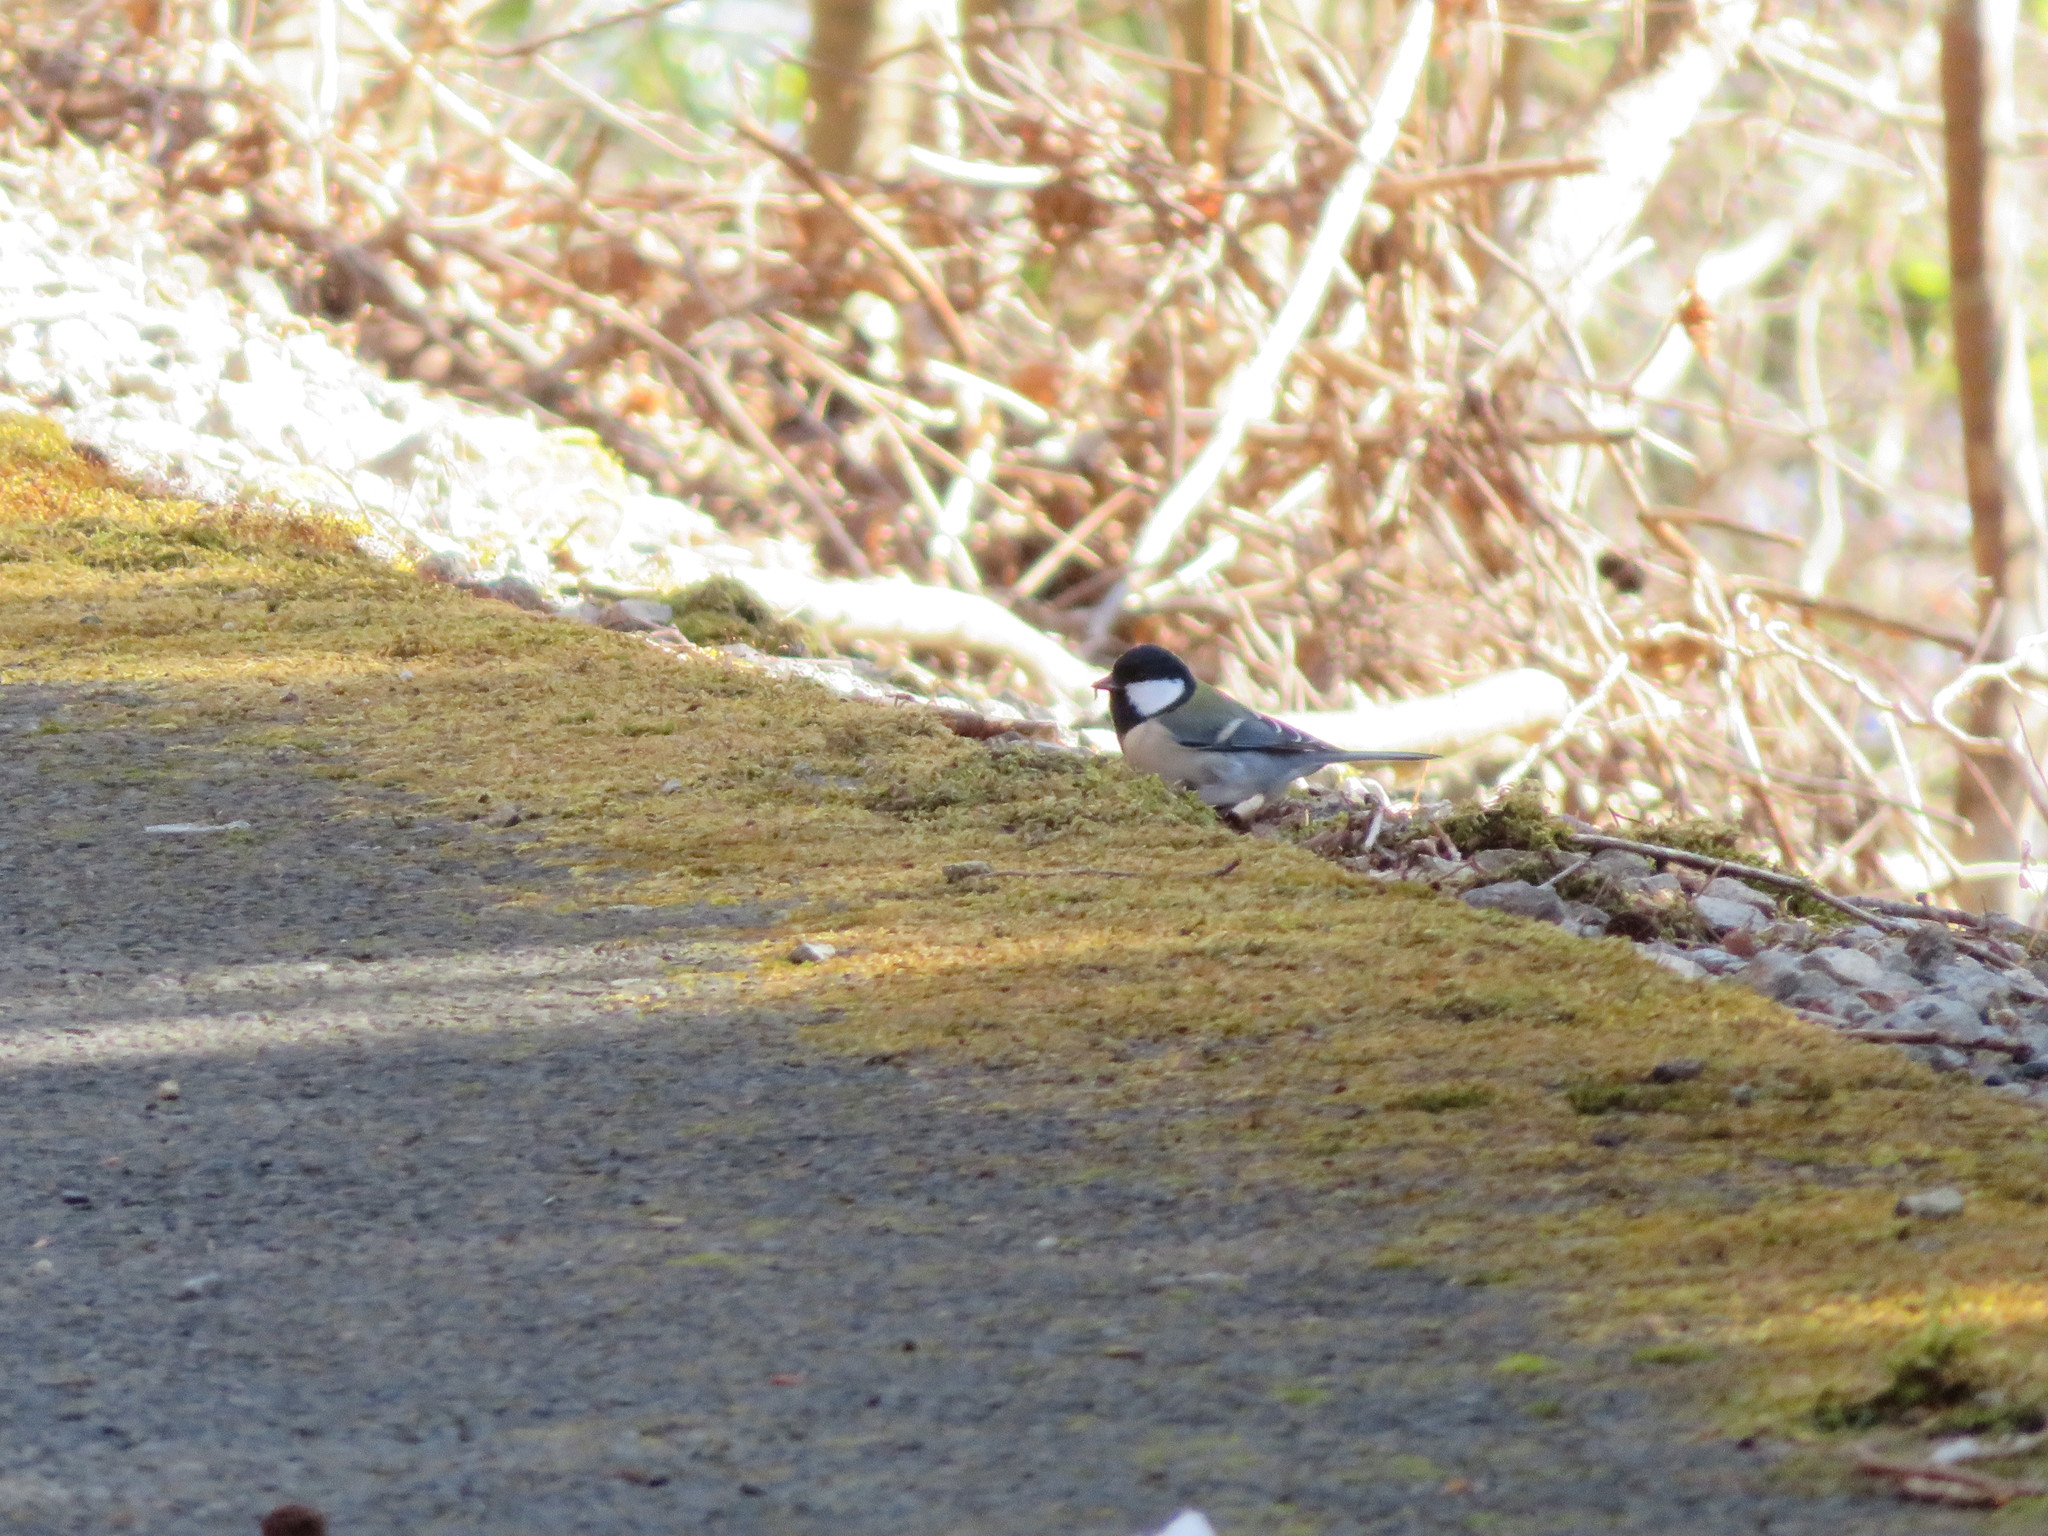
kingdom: Animalia
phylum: Chordata
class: Aves
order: Passeriformes
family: Paridae
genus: Parus
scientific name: Parus minor
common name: Japanese tit
